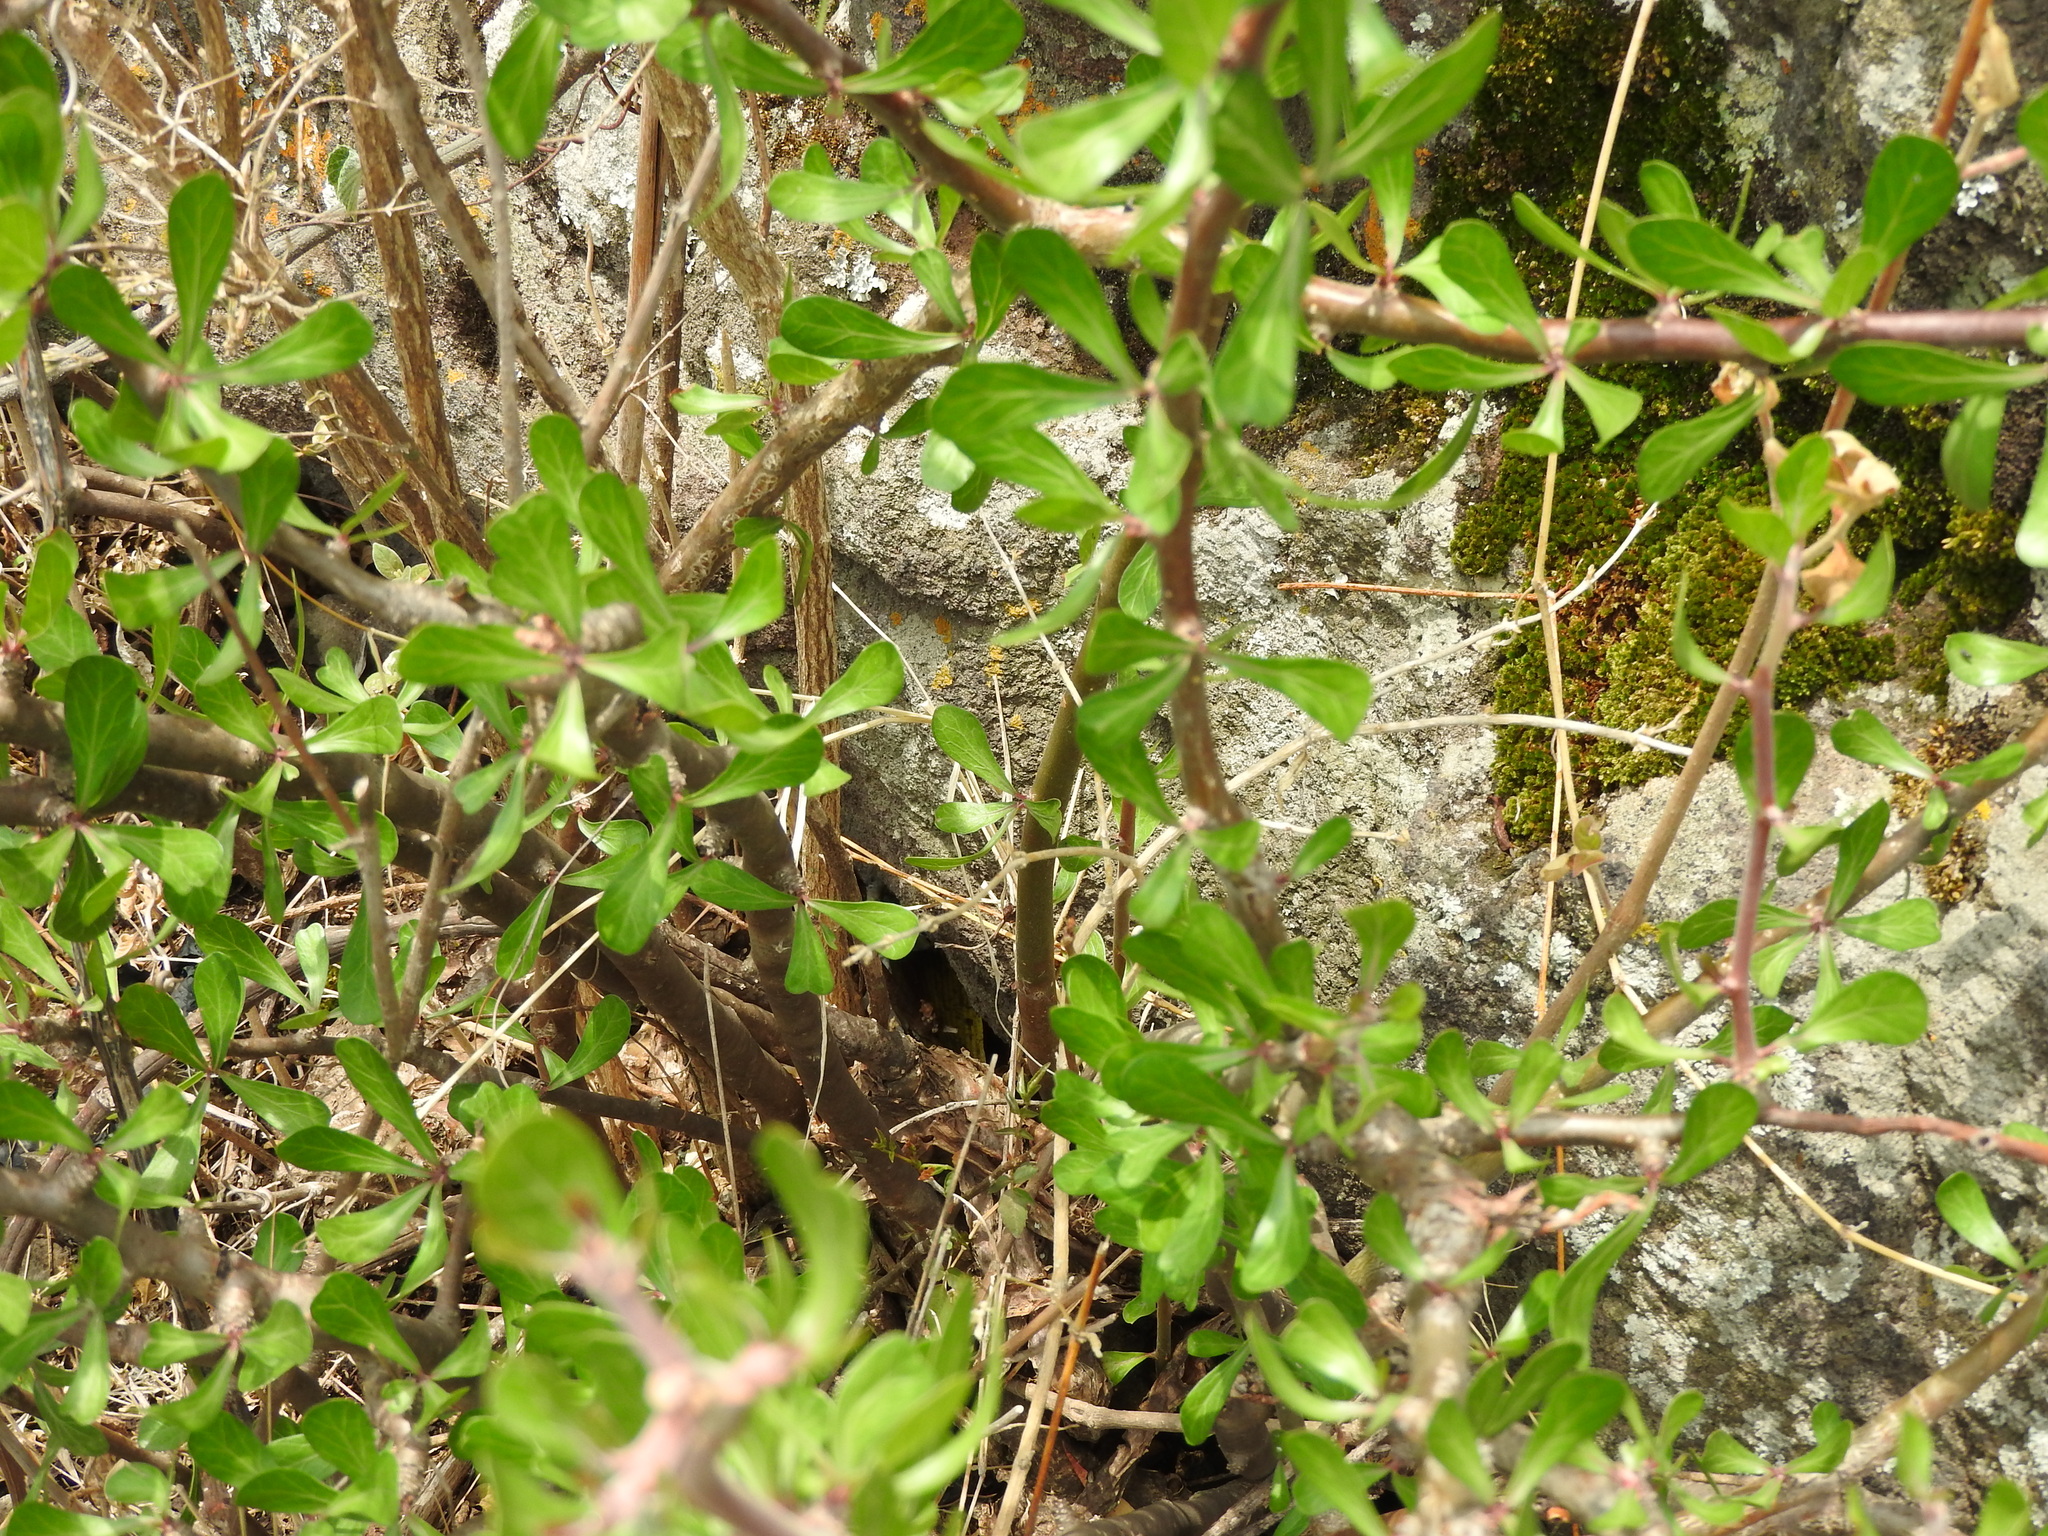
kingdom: Plantae
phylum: Tracheophyta
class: Magnoliopsida
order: Malpighiales
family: Euphorbiaceae
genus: Jatropha
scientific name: Jatropha dioica
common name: Leatherstem
